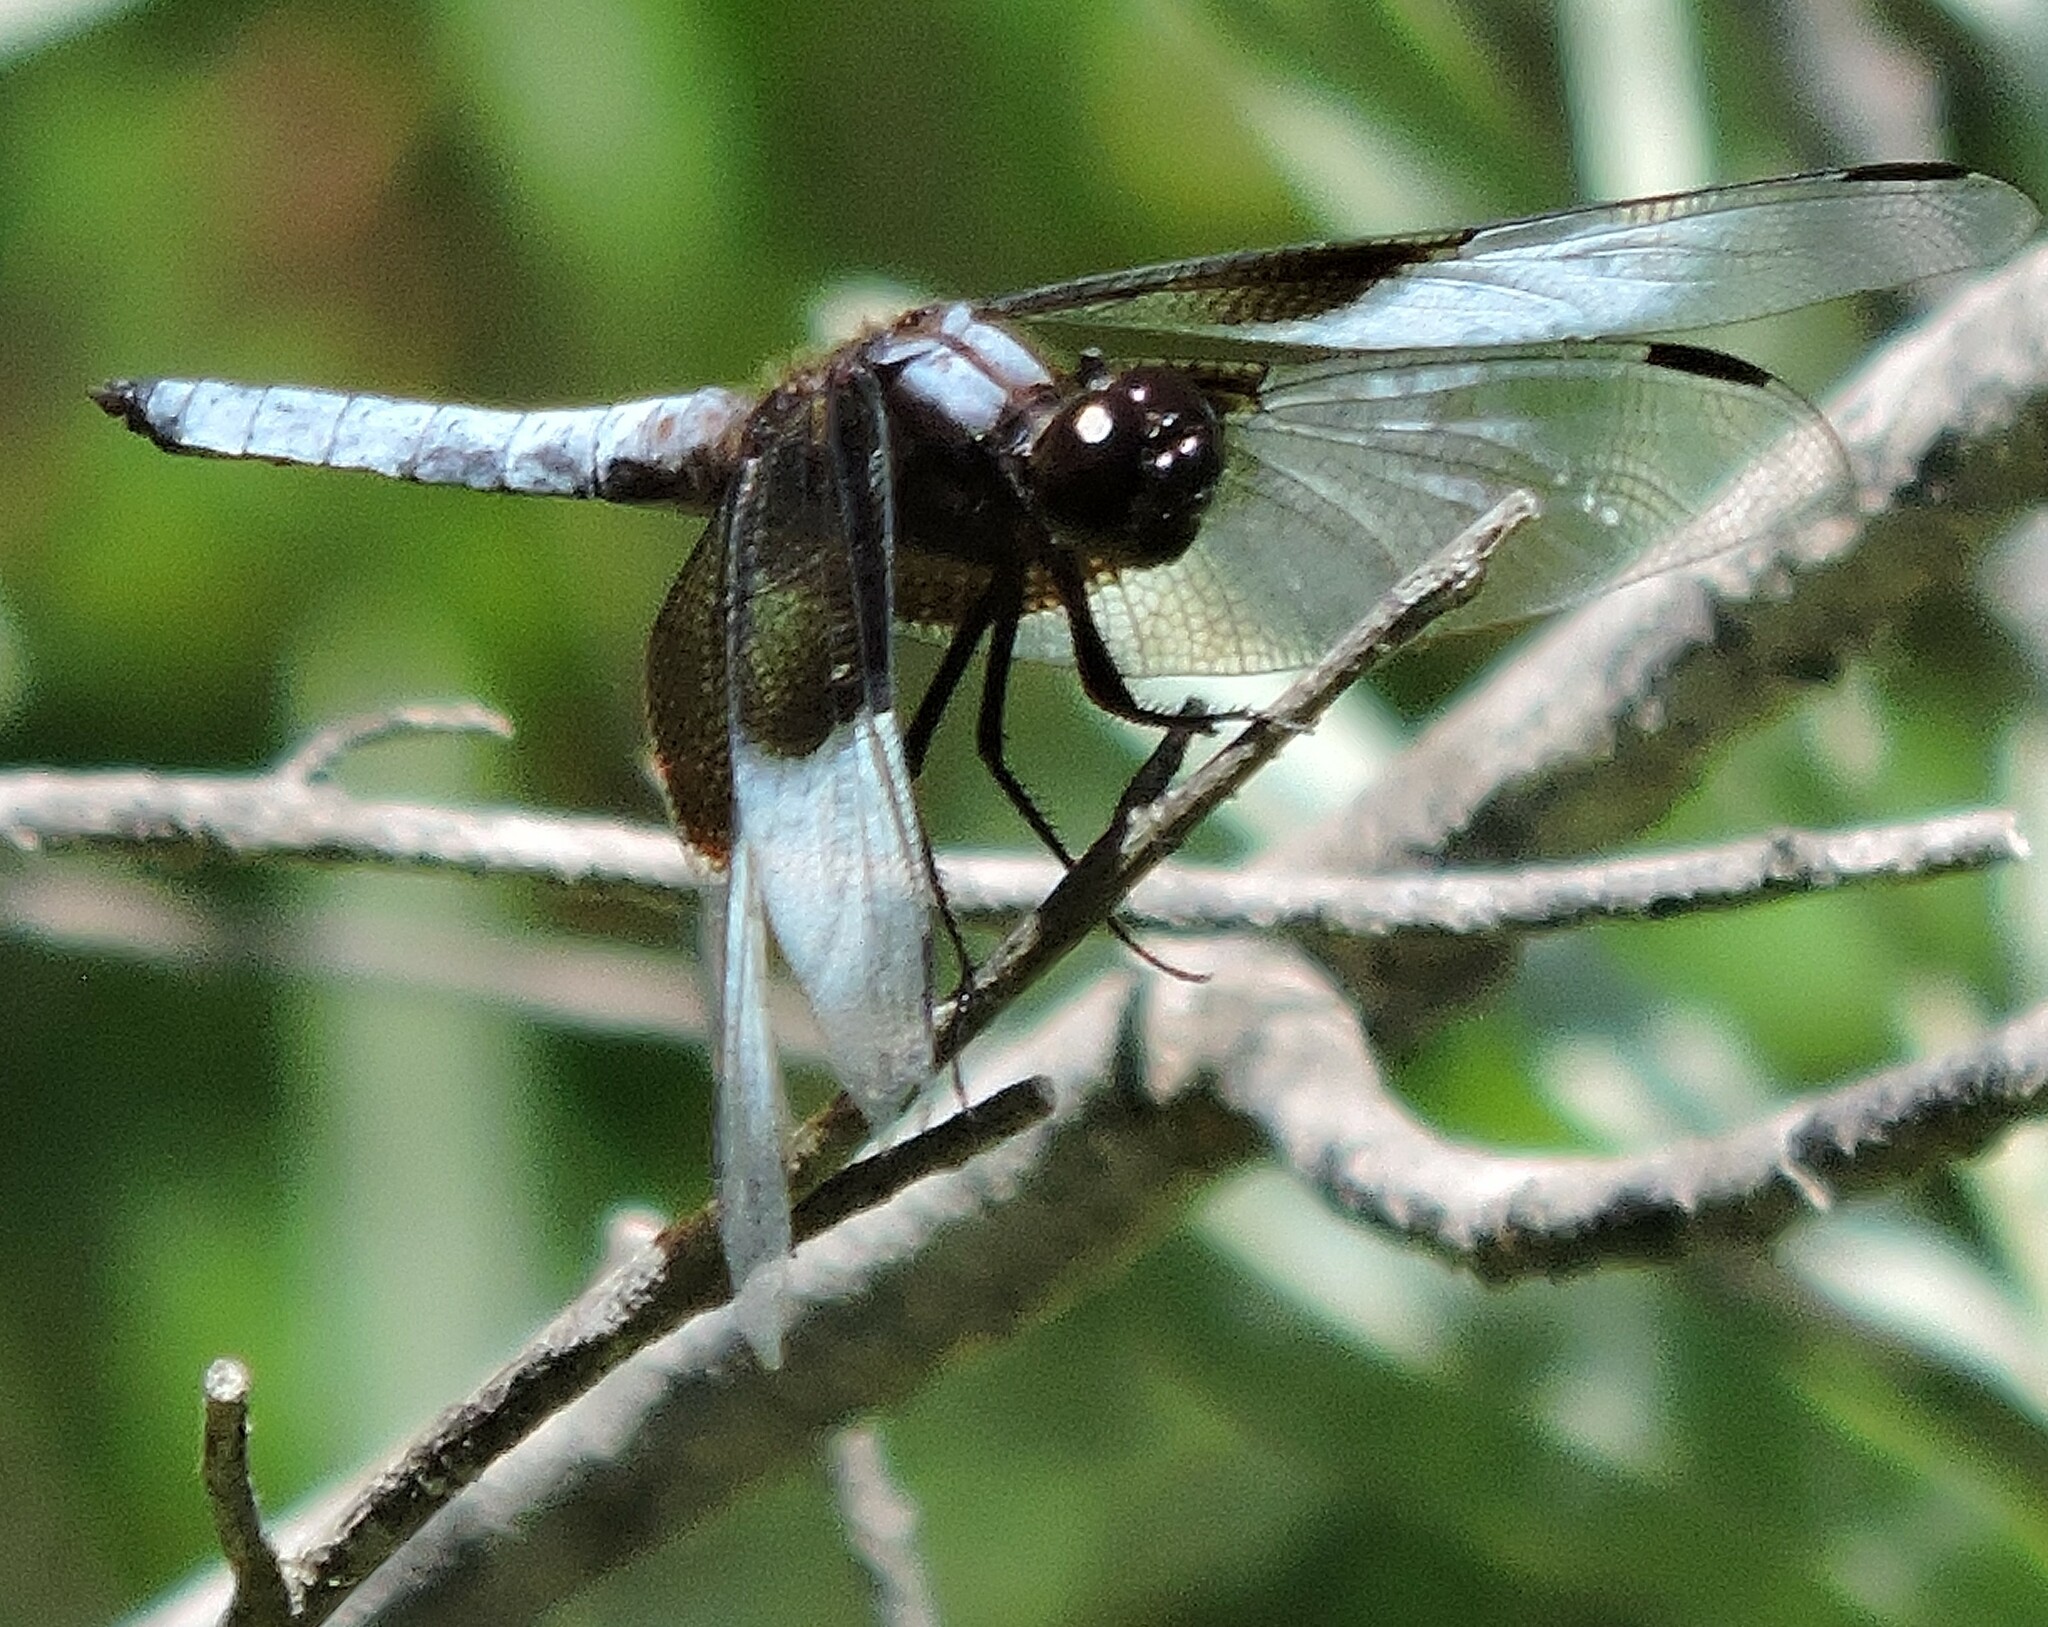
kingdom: Animalia
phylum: Arthropoda
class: Insecta
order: Odonata
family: Libellulidae
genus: Libellula
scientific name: Libellula luctuosa
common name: Widow skimmer
